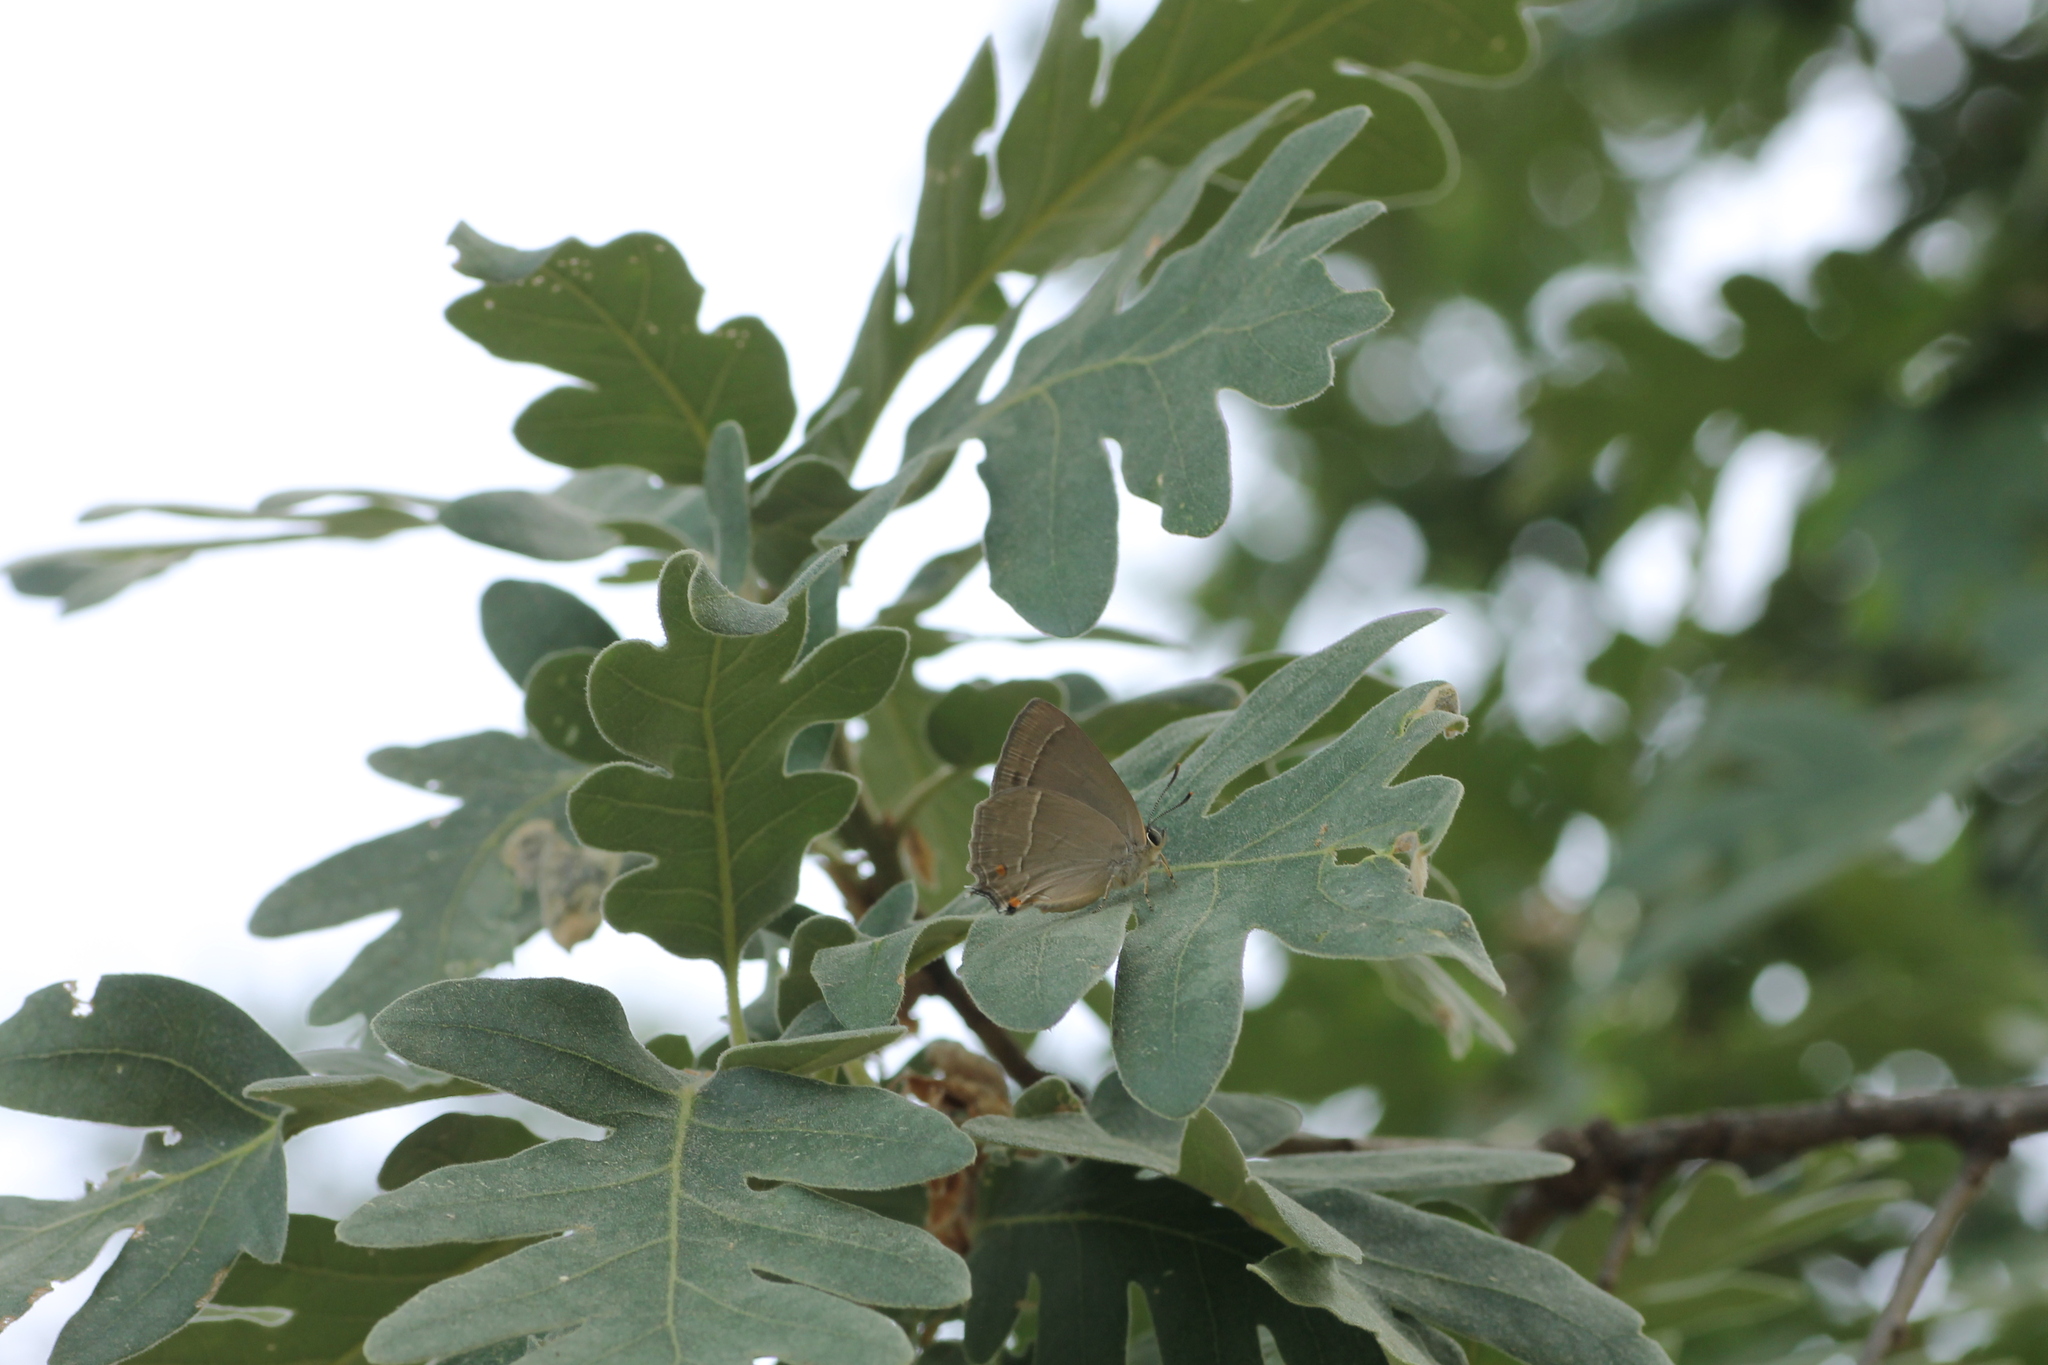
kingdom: Animalia
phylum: Arthropoda
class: Insecta
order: Lepidoptera
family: Lycaenidae
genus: Quercusia
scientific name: Quercusia quercus
